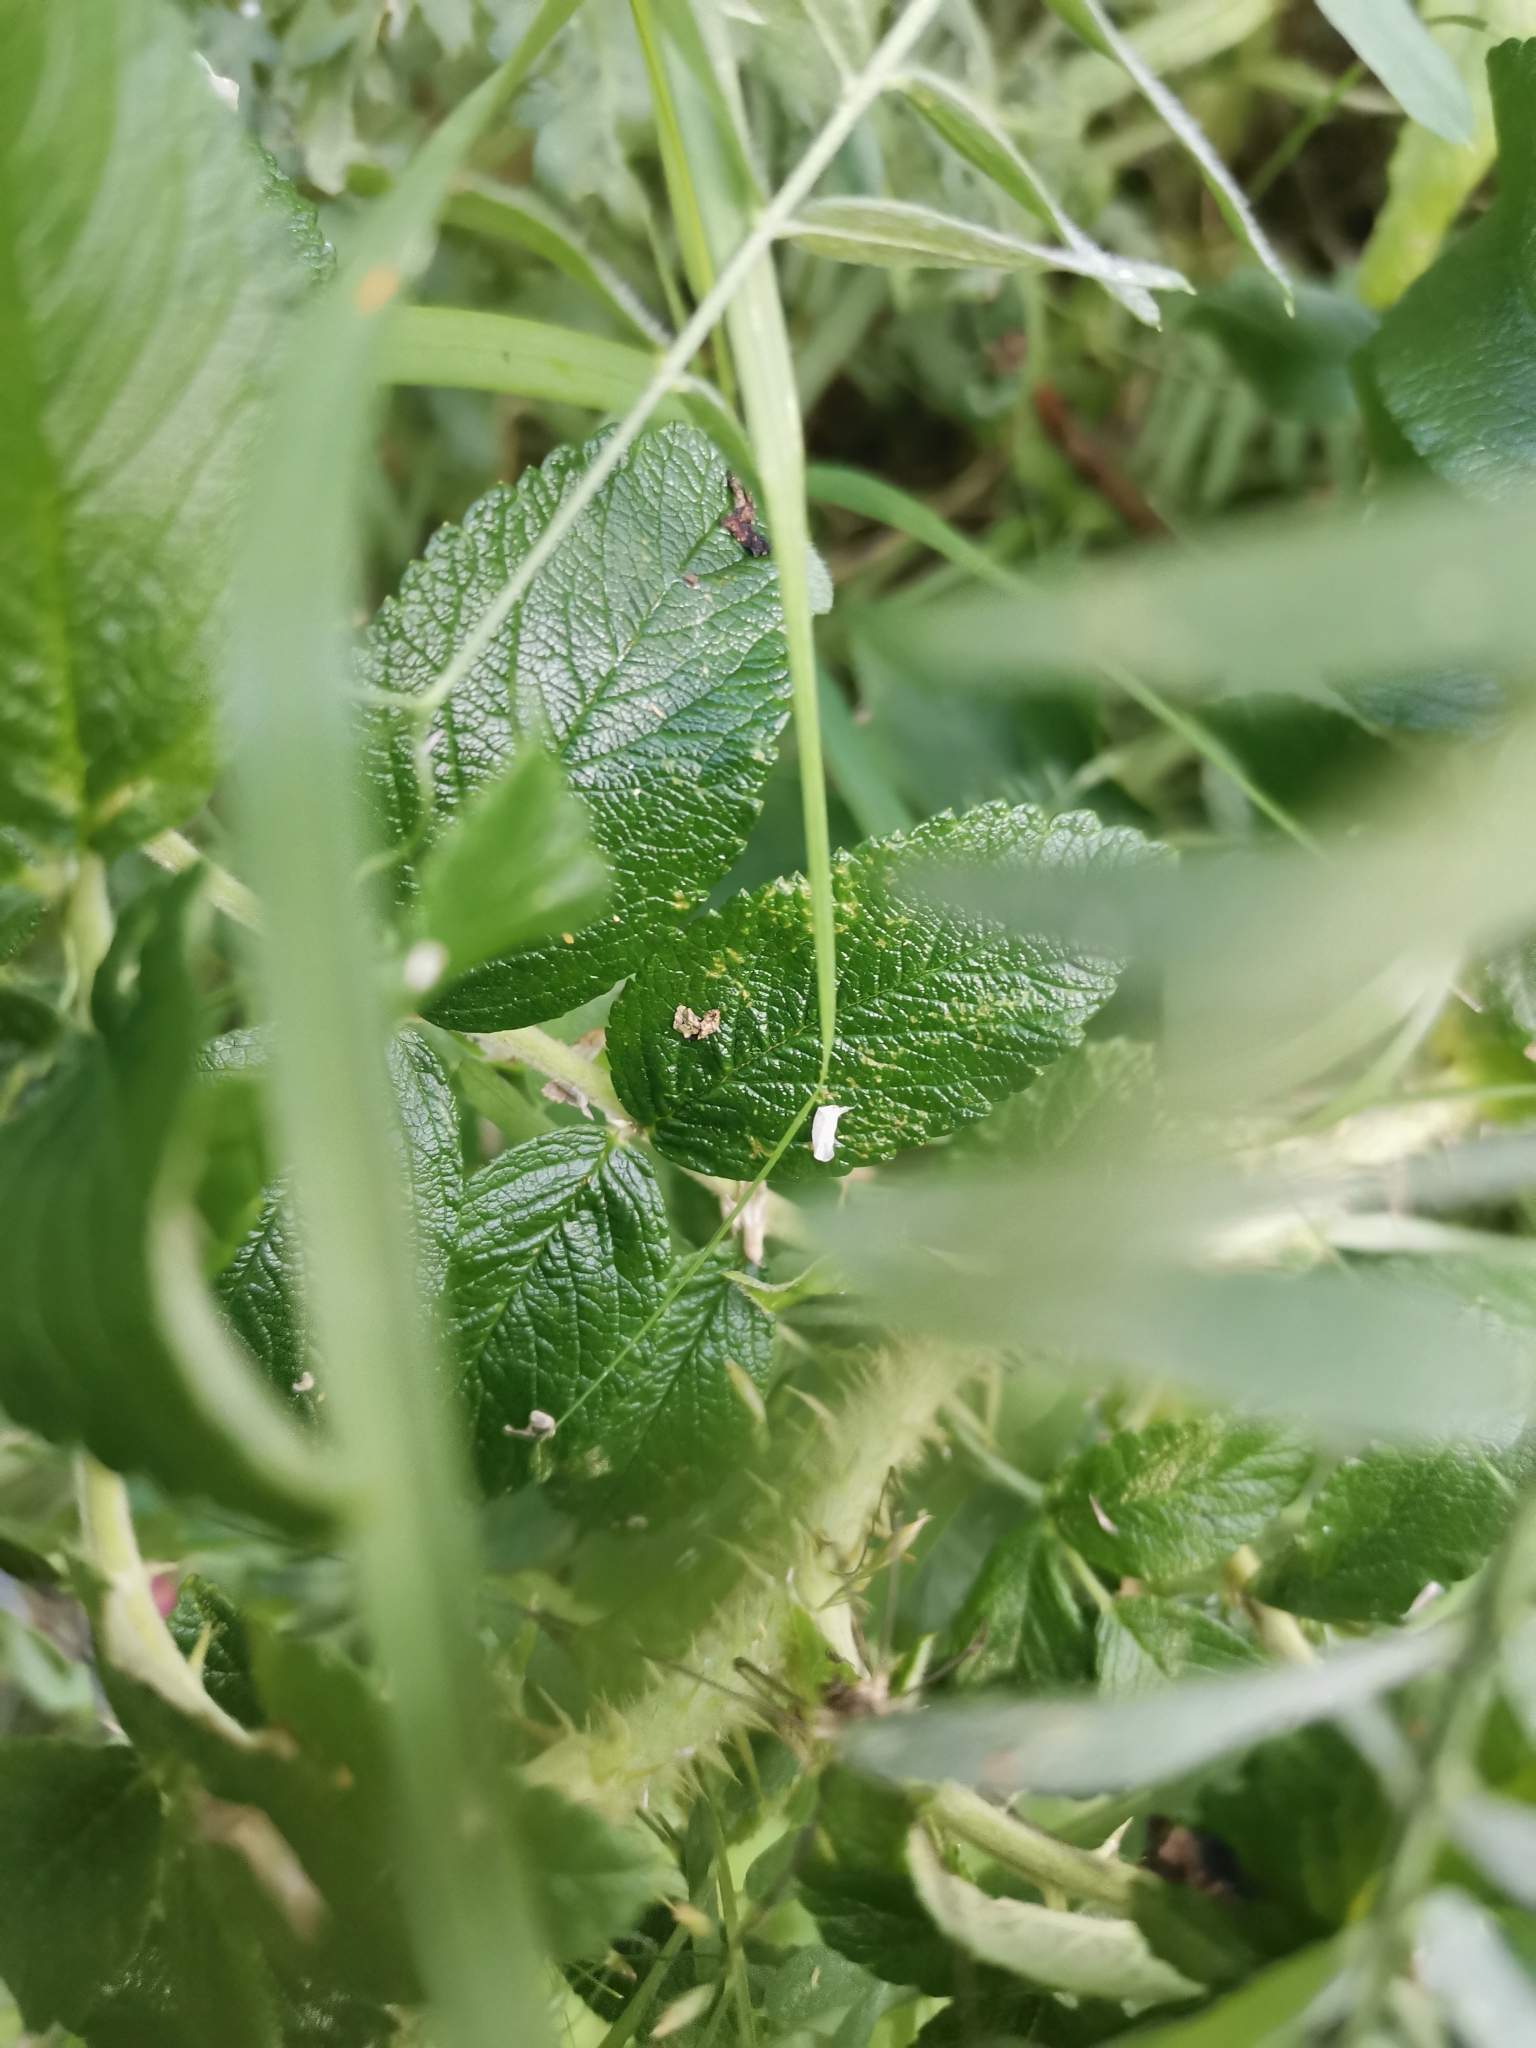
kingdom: Plantae
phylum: Tracheophyta
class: Magnoliopsida
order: Rosales
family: Rosaceae
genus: Rosa
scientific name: Rosa rugosa
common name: Japanese rose
